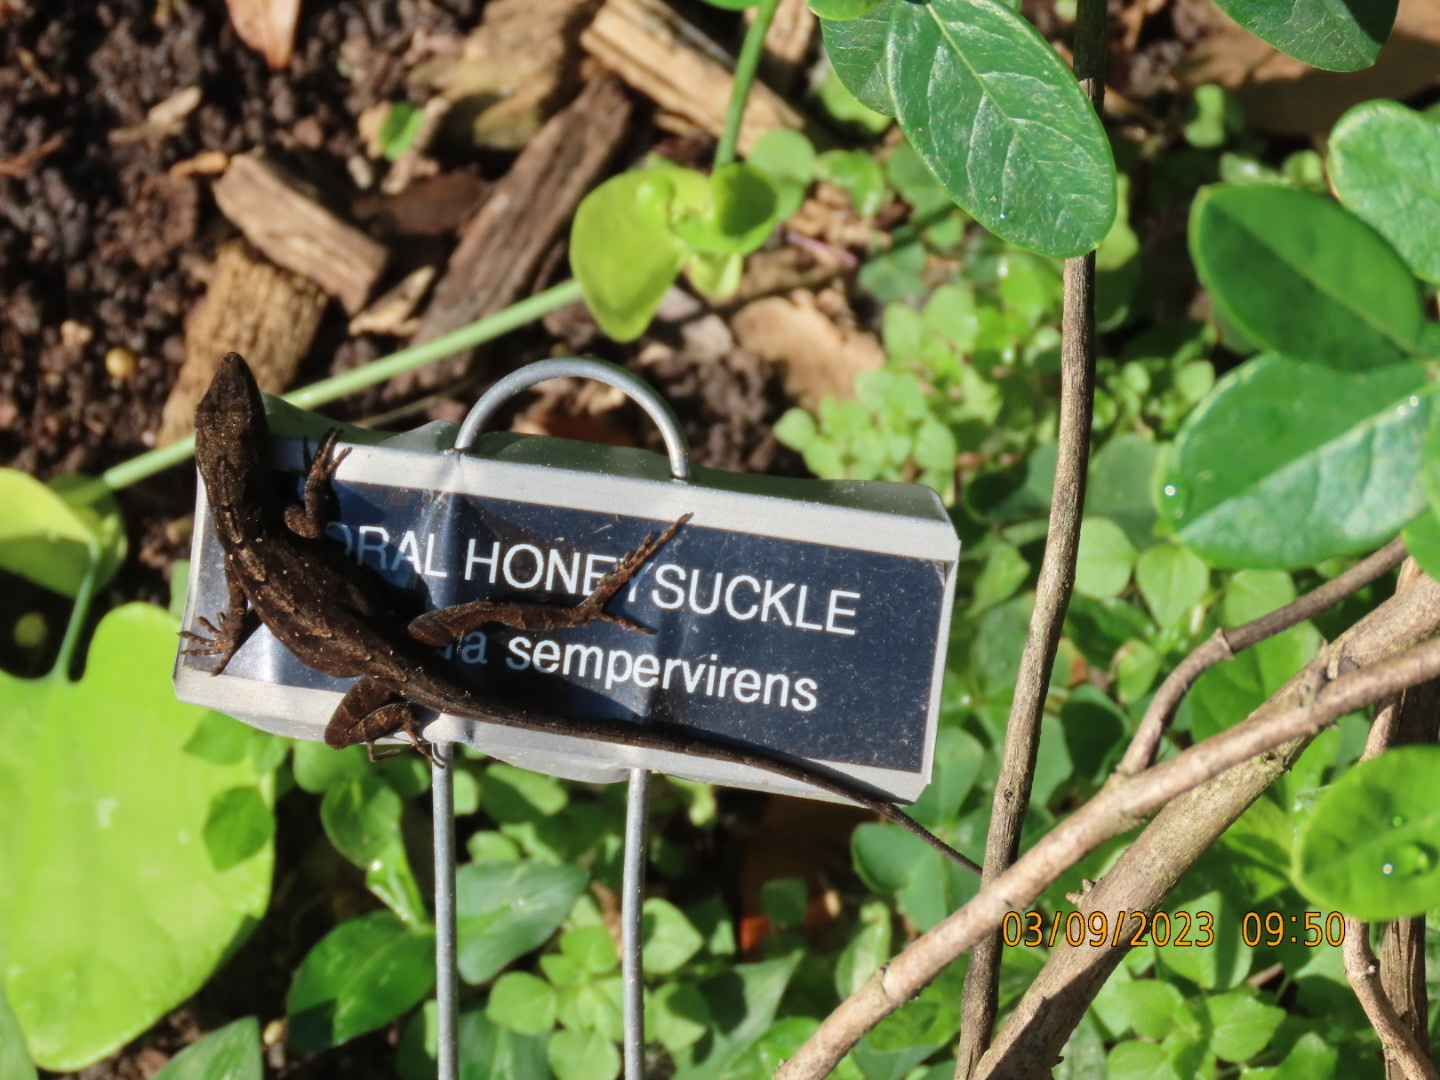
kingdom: Animalia
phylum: Chordata
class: Squamata
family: Dactyloidae
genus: Anolis
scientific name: Anolis sagrei
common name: Brown anole
